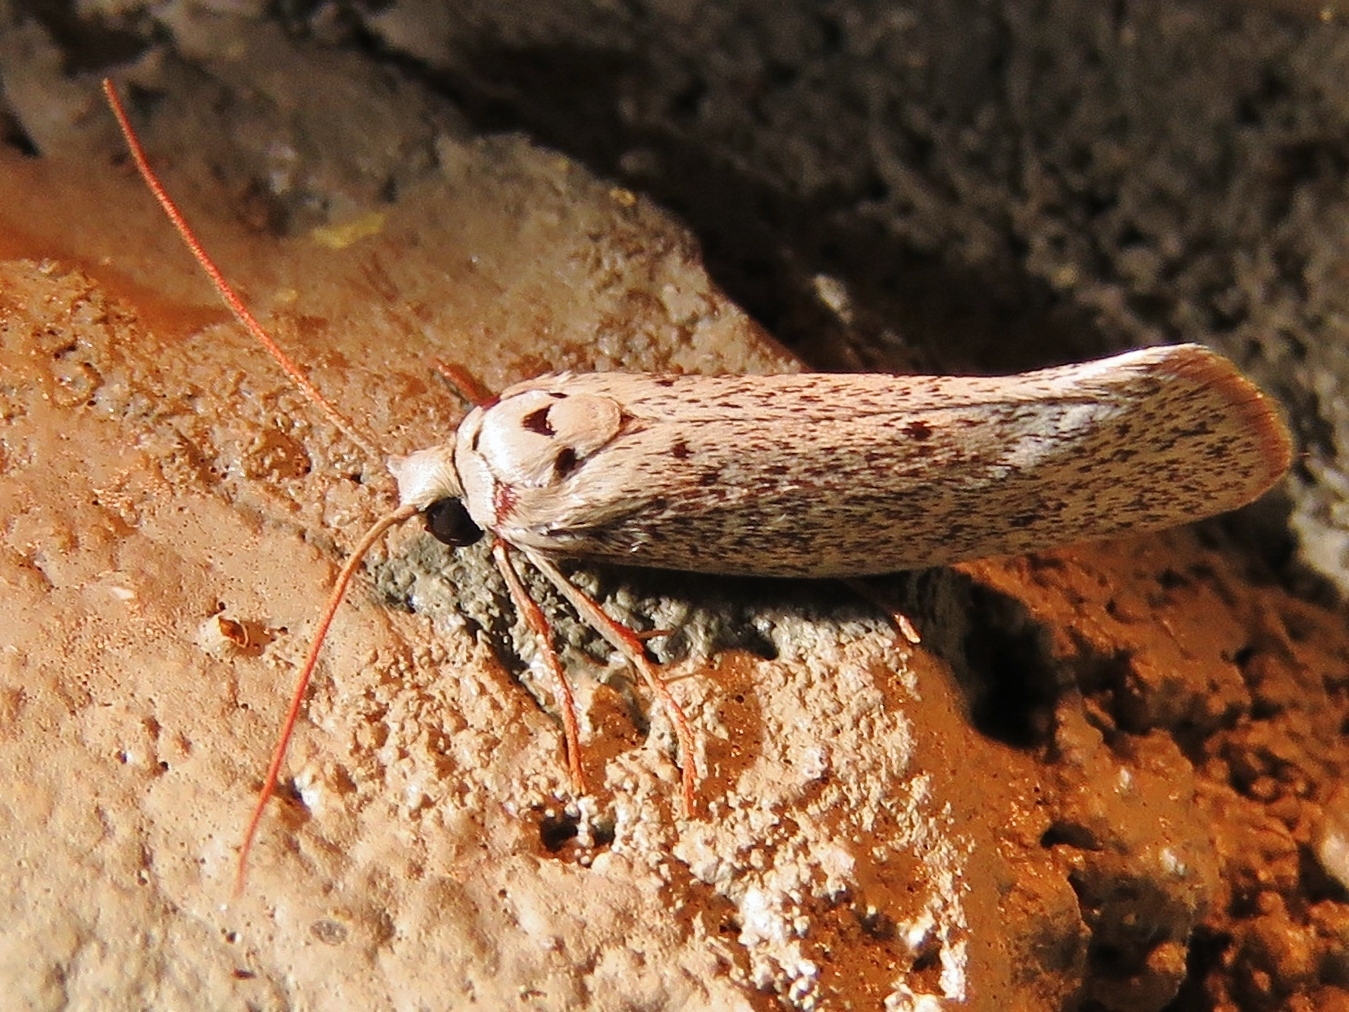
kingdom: Animalia
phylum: Arthropoda
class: Insecta
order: Lepidoptera
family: Lacturidae
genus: Lactura
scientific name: Lactura
